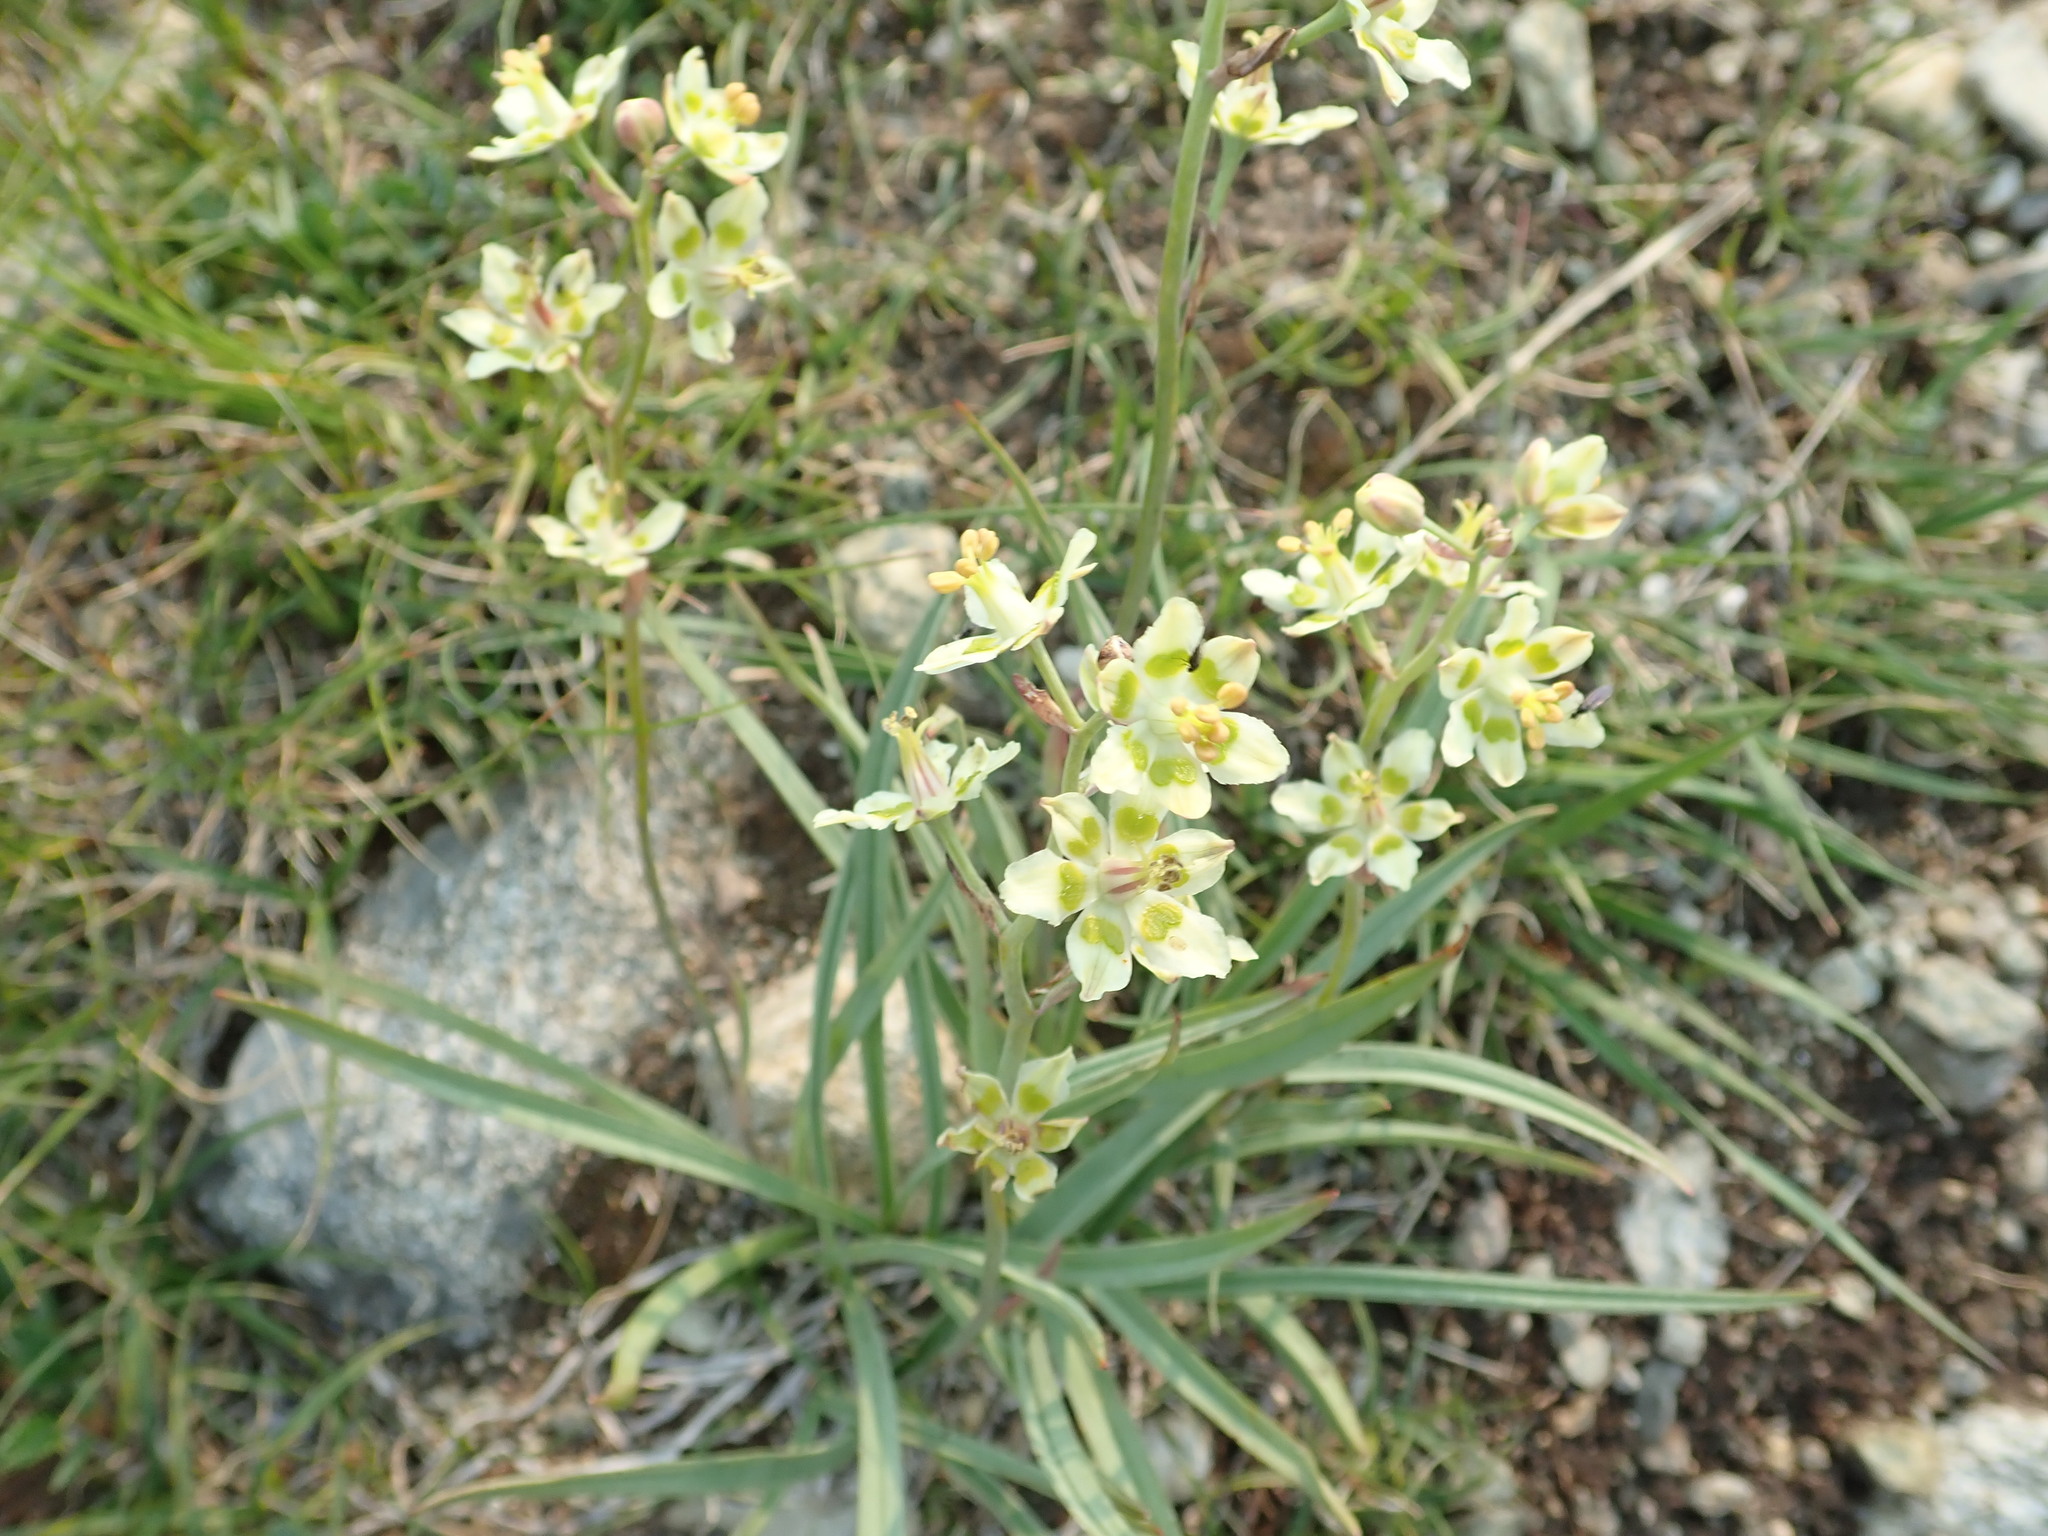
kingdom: Plantae
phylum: Tracheophyta
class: Liliopsida
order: Liliales
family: Melanthiaceae
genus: Anticlea
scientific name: Anticlea elegans
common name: Mountain death camas
